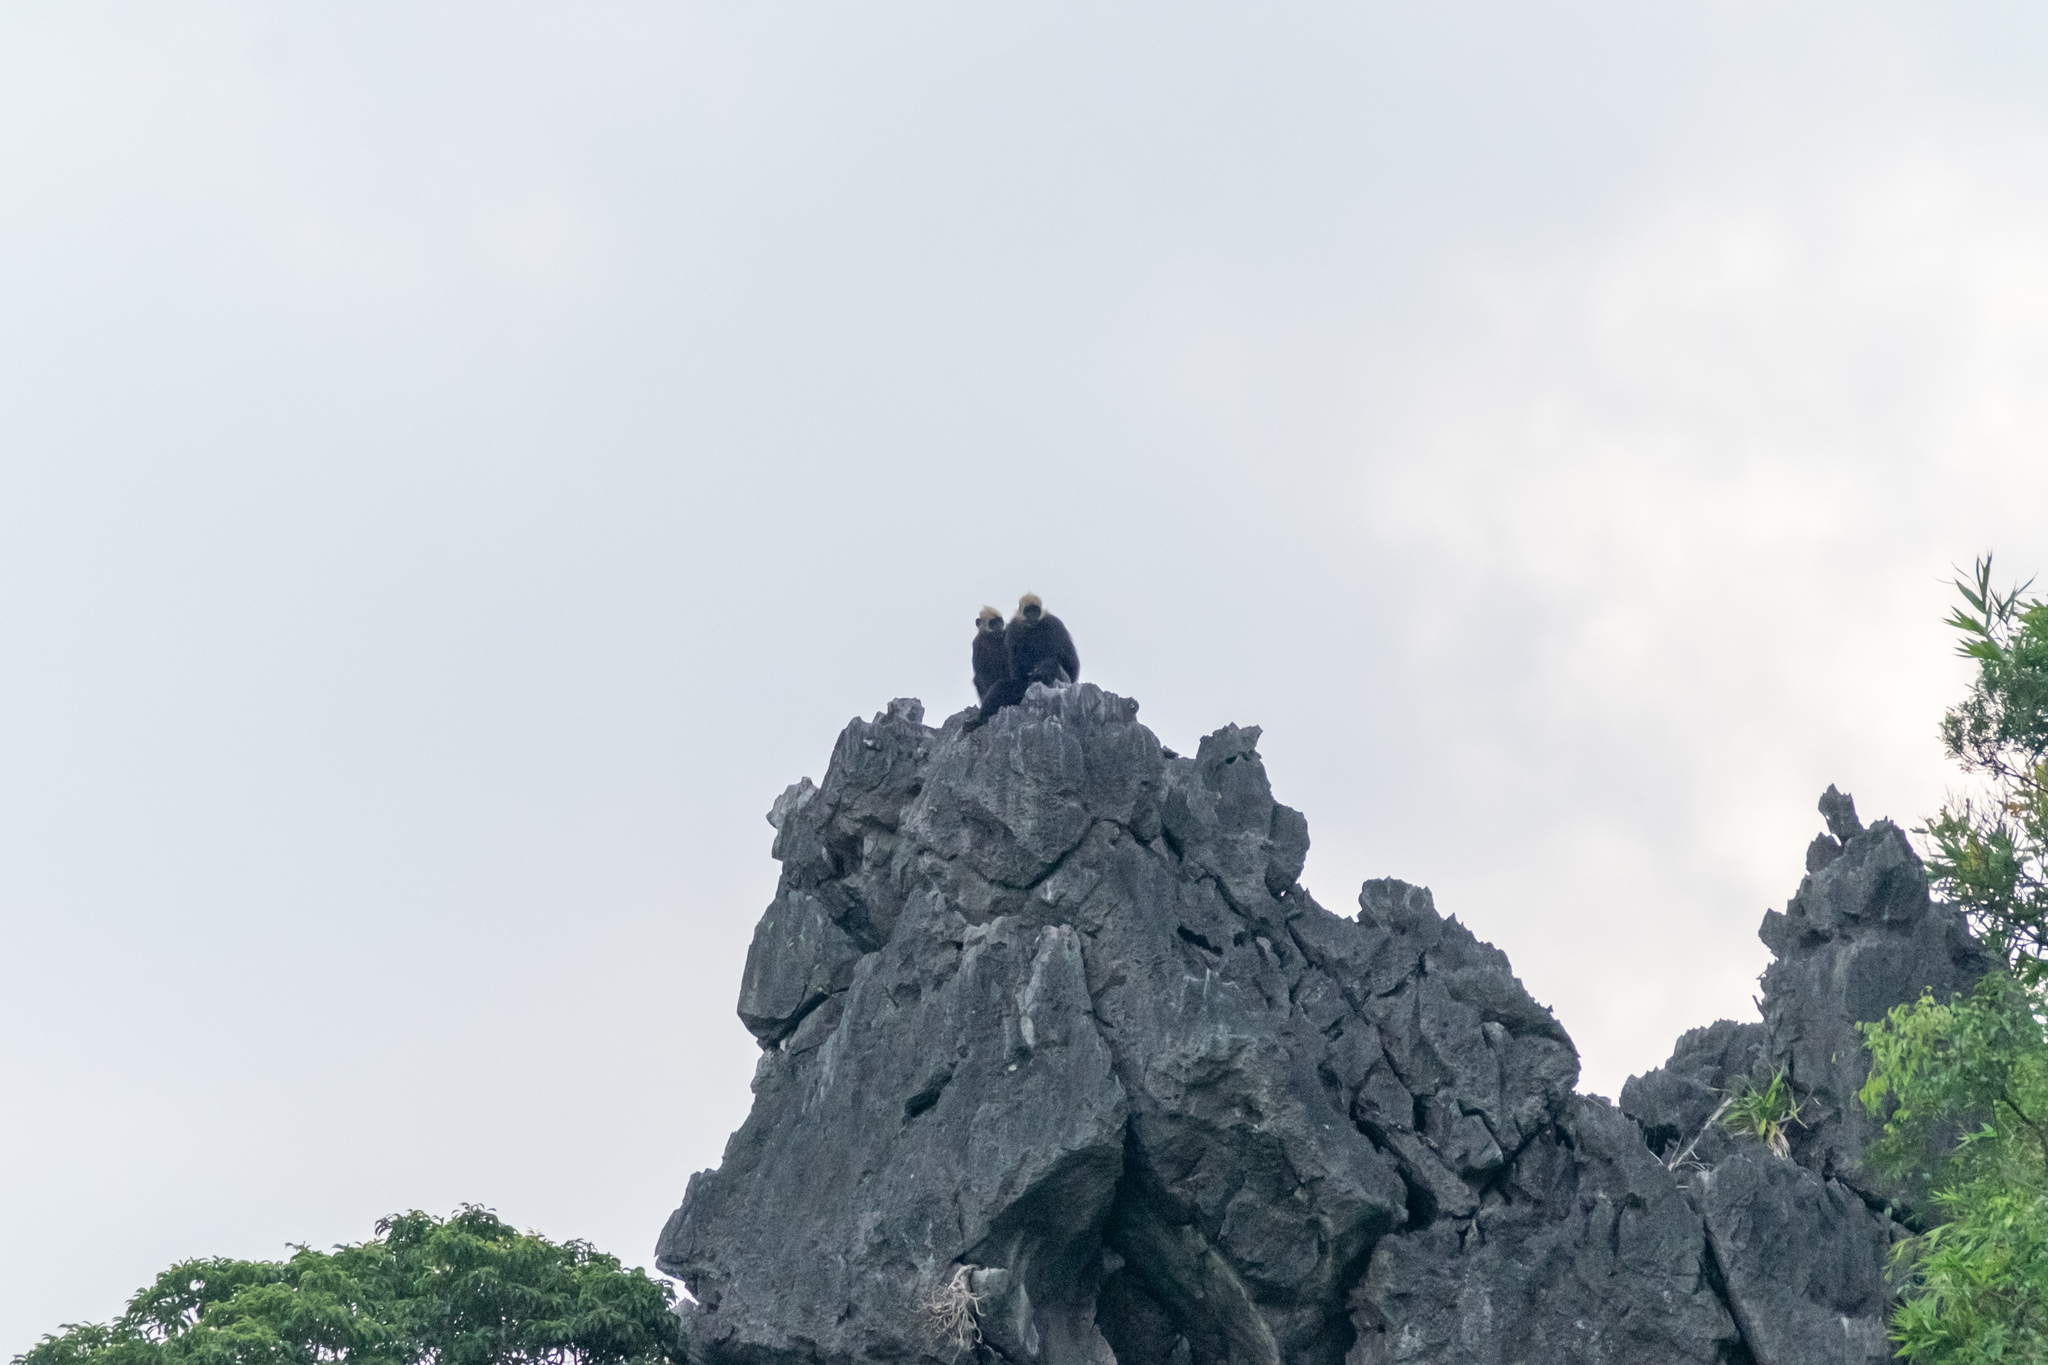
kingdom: Animalia
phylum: Chordata
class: Mammalia
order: Primates
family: Cercopithecidae
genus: Trachypithecus
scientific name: Trachypithecus poliocephalus
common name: Cat ba langur
